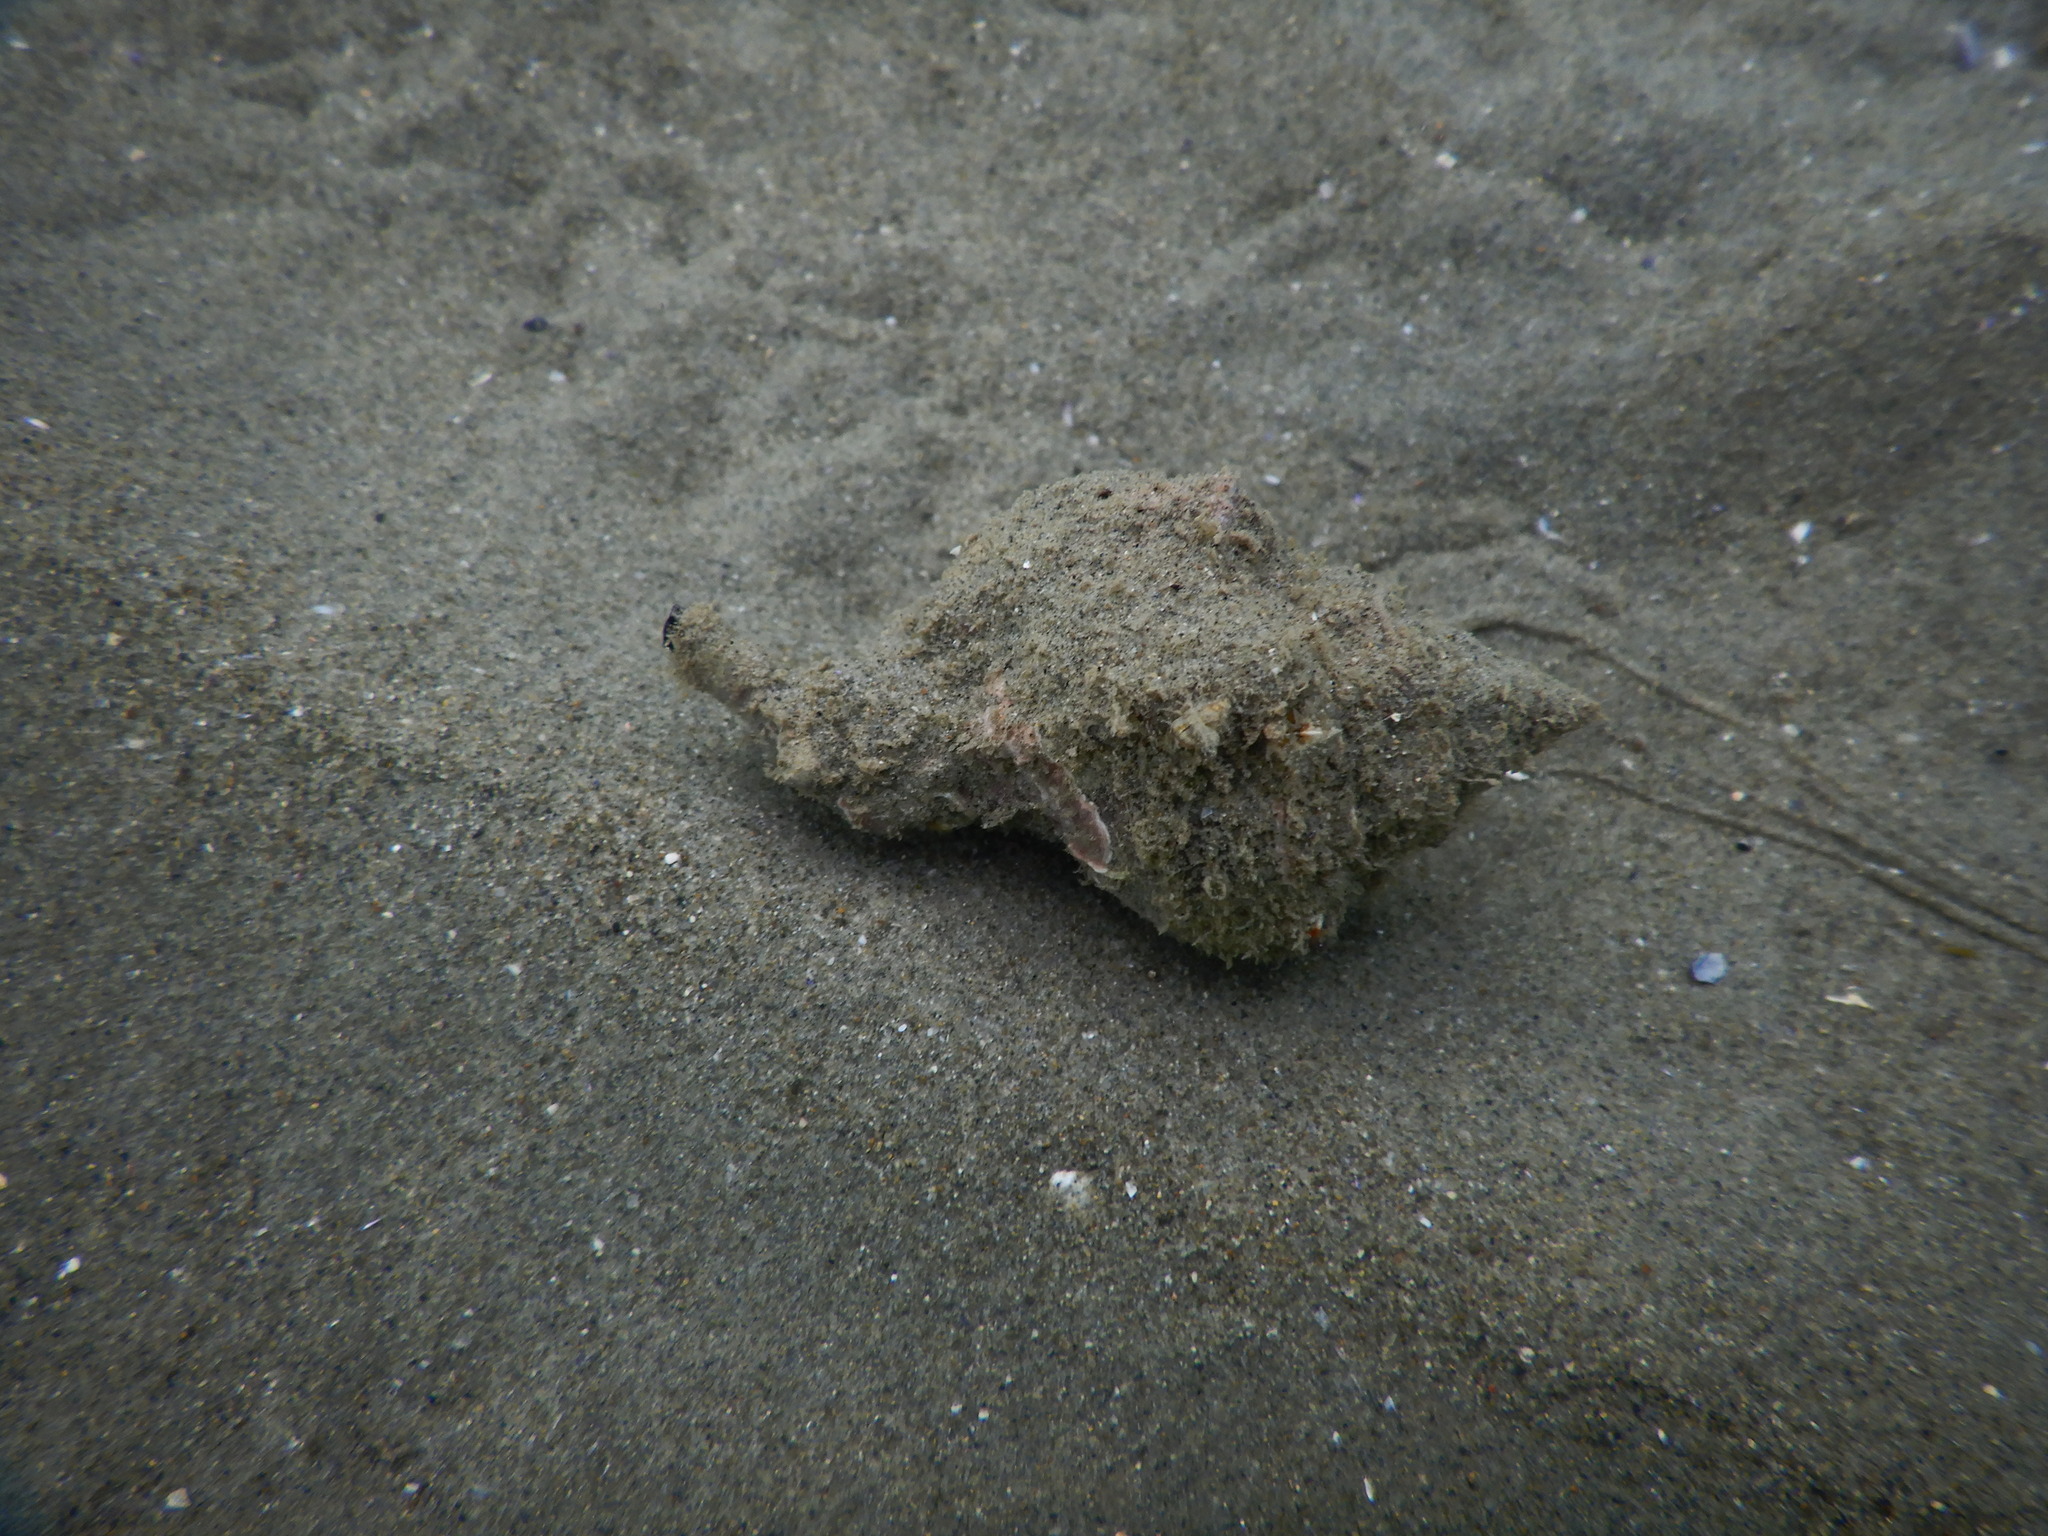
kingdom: Animalia
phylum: Mollusca
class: Gastropoda
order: Neogastropoda
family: Muricidae
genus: Hexaplex
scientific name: Hexaplex trunculus
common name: Banded dye-murex
